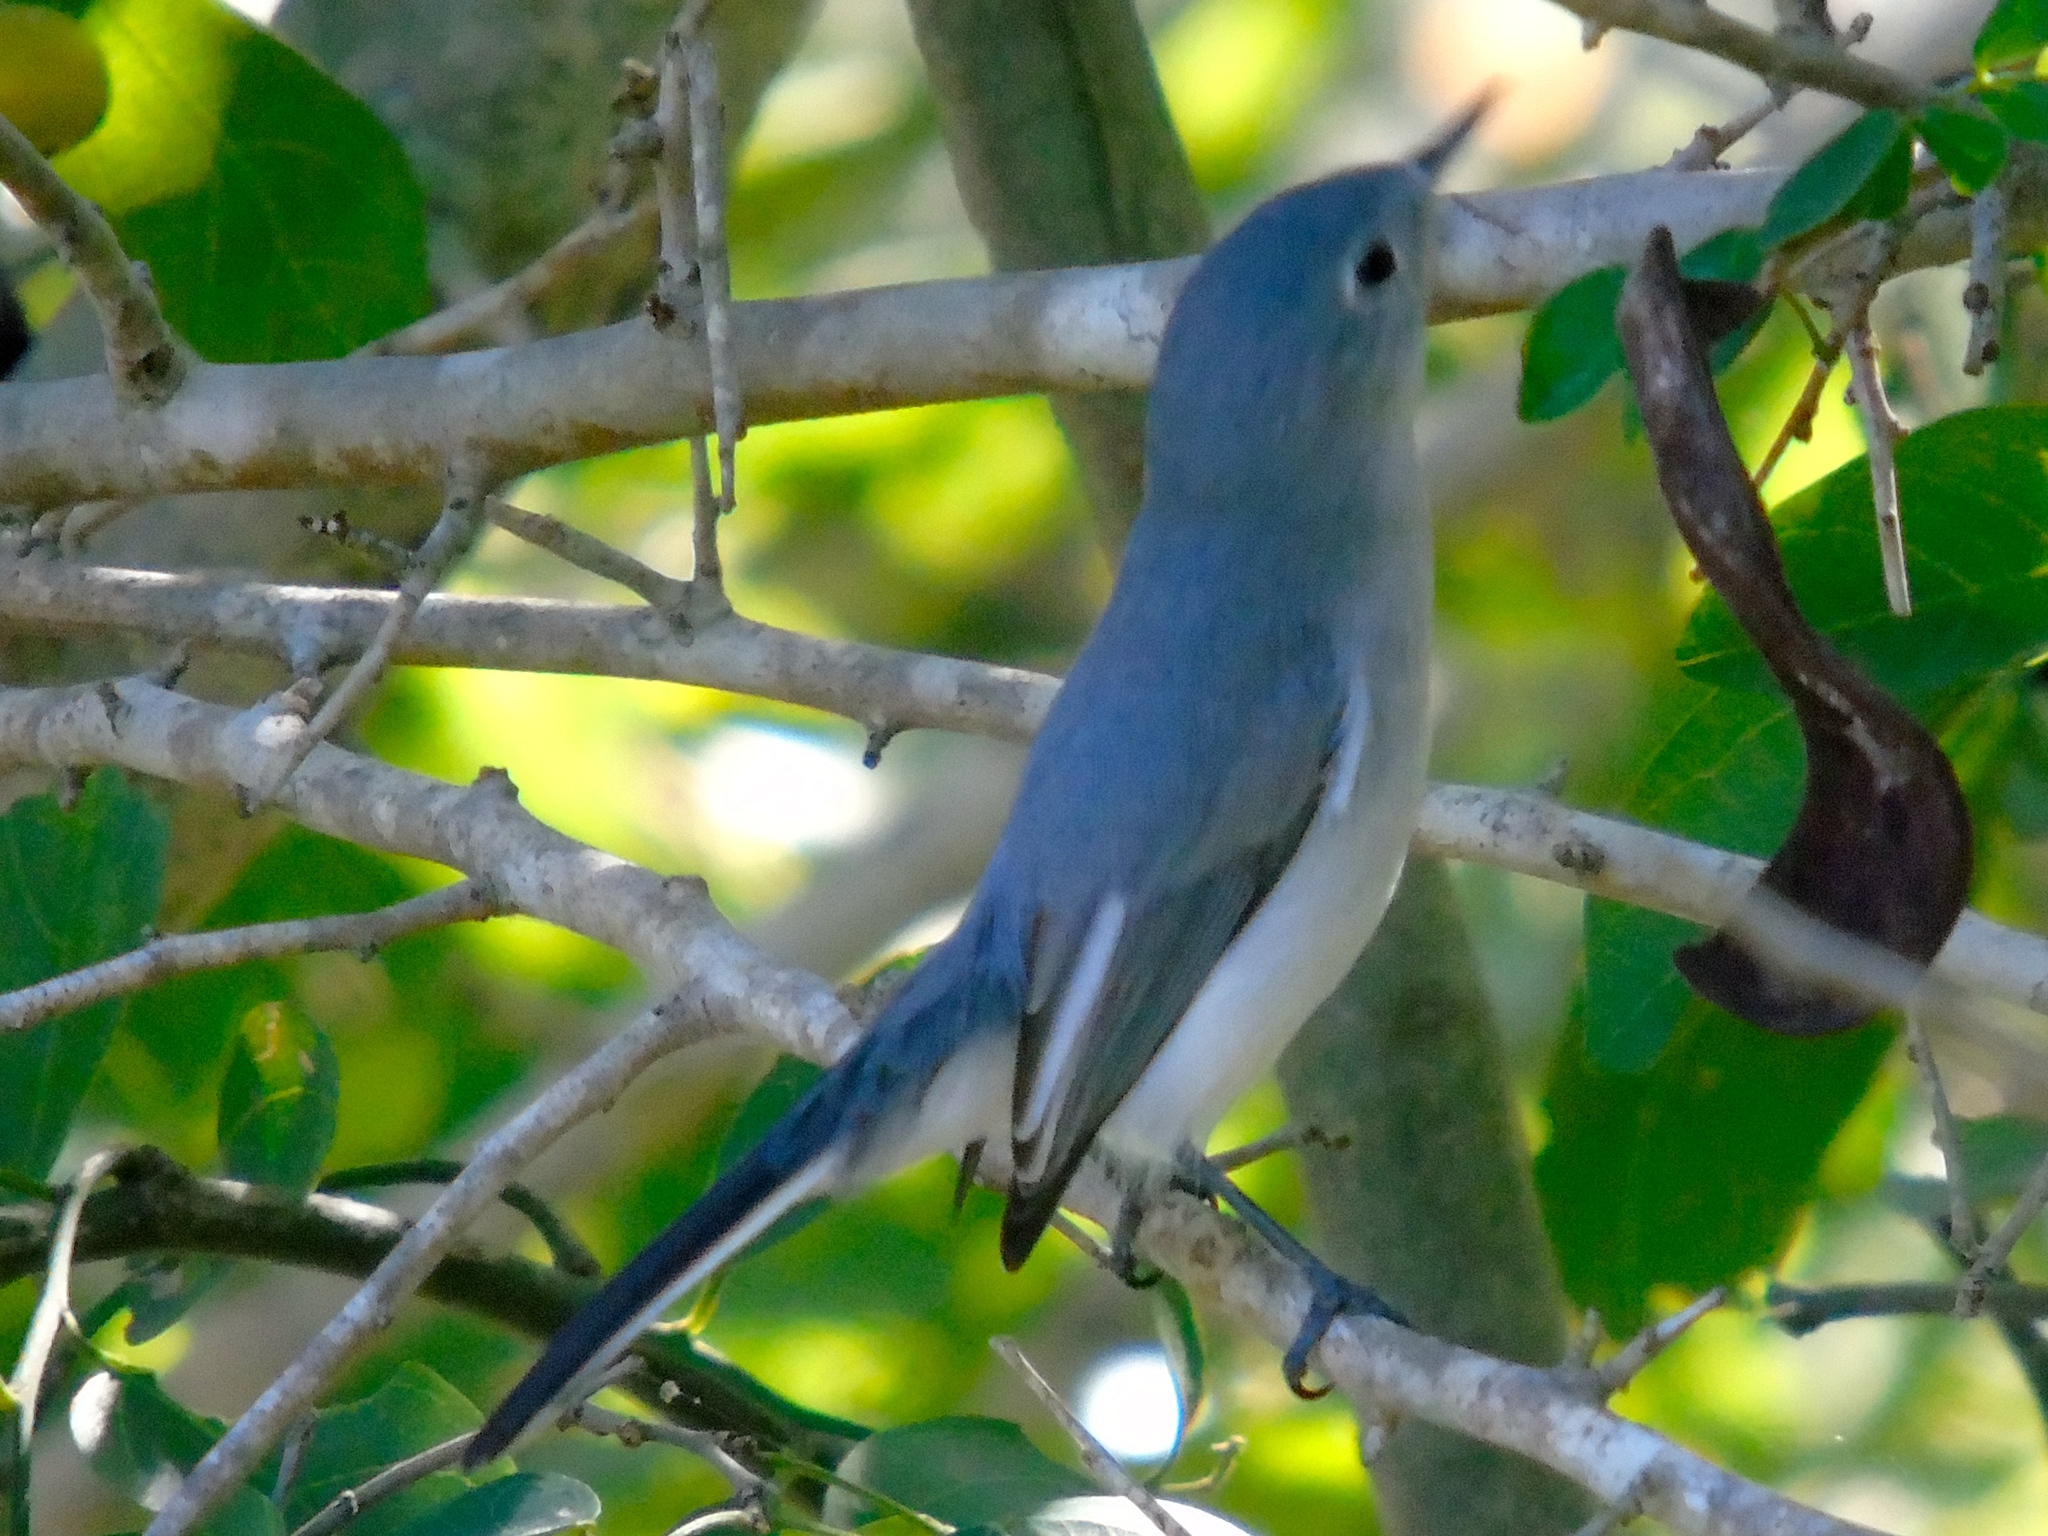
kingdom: Animalia
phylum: Chordata
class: Aves
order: Passeriformes
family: Polioptilidae
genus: Polioptila
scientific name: Polioptila caerulea
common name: Blue-gray gnatcatcher
